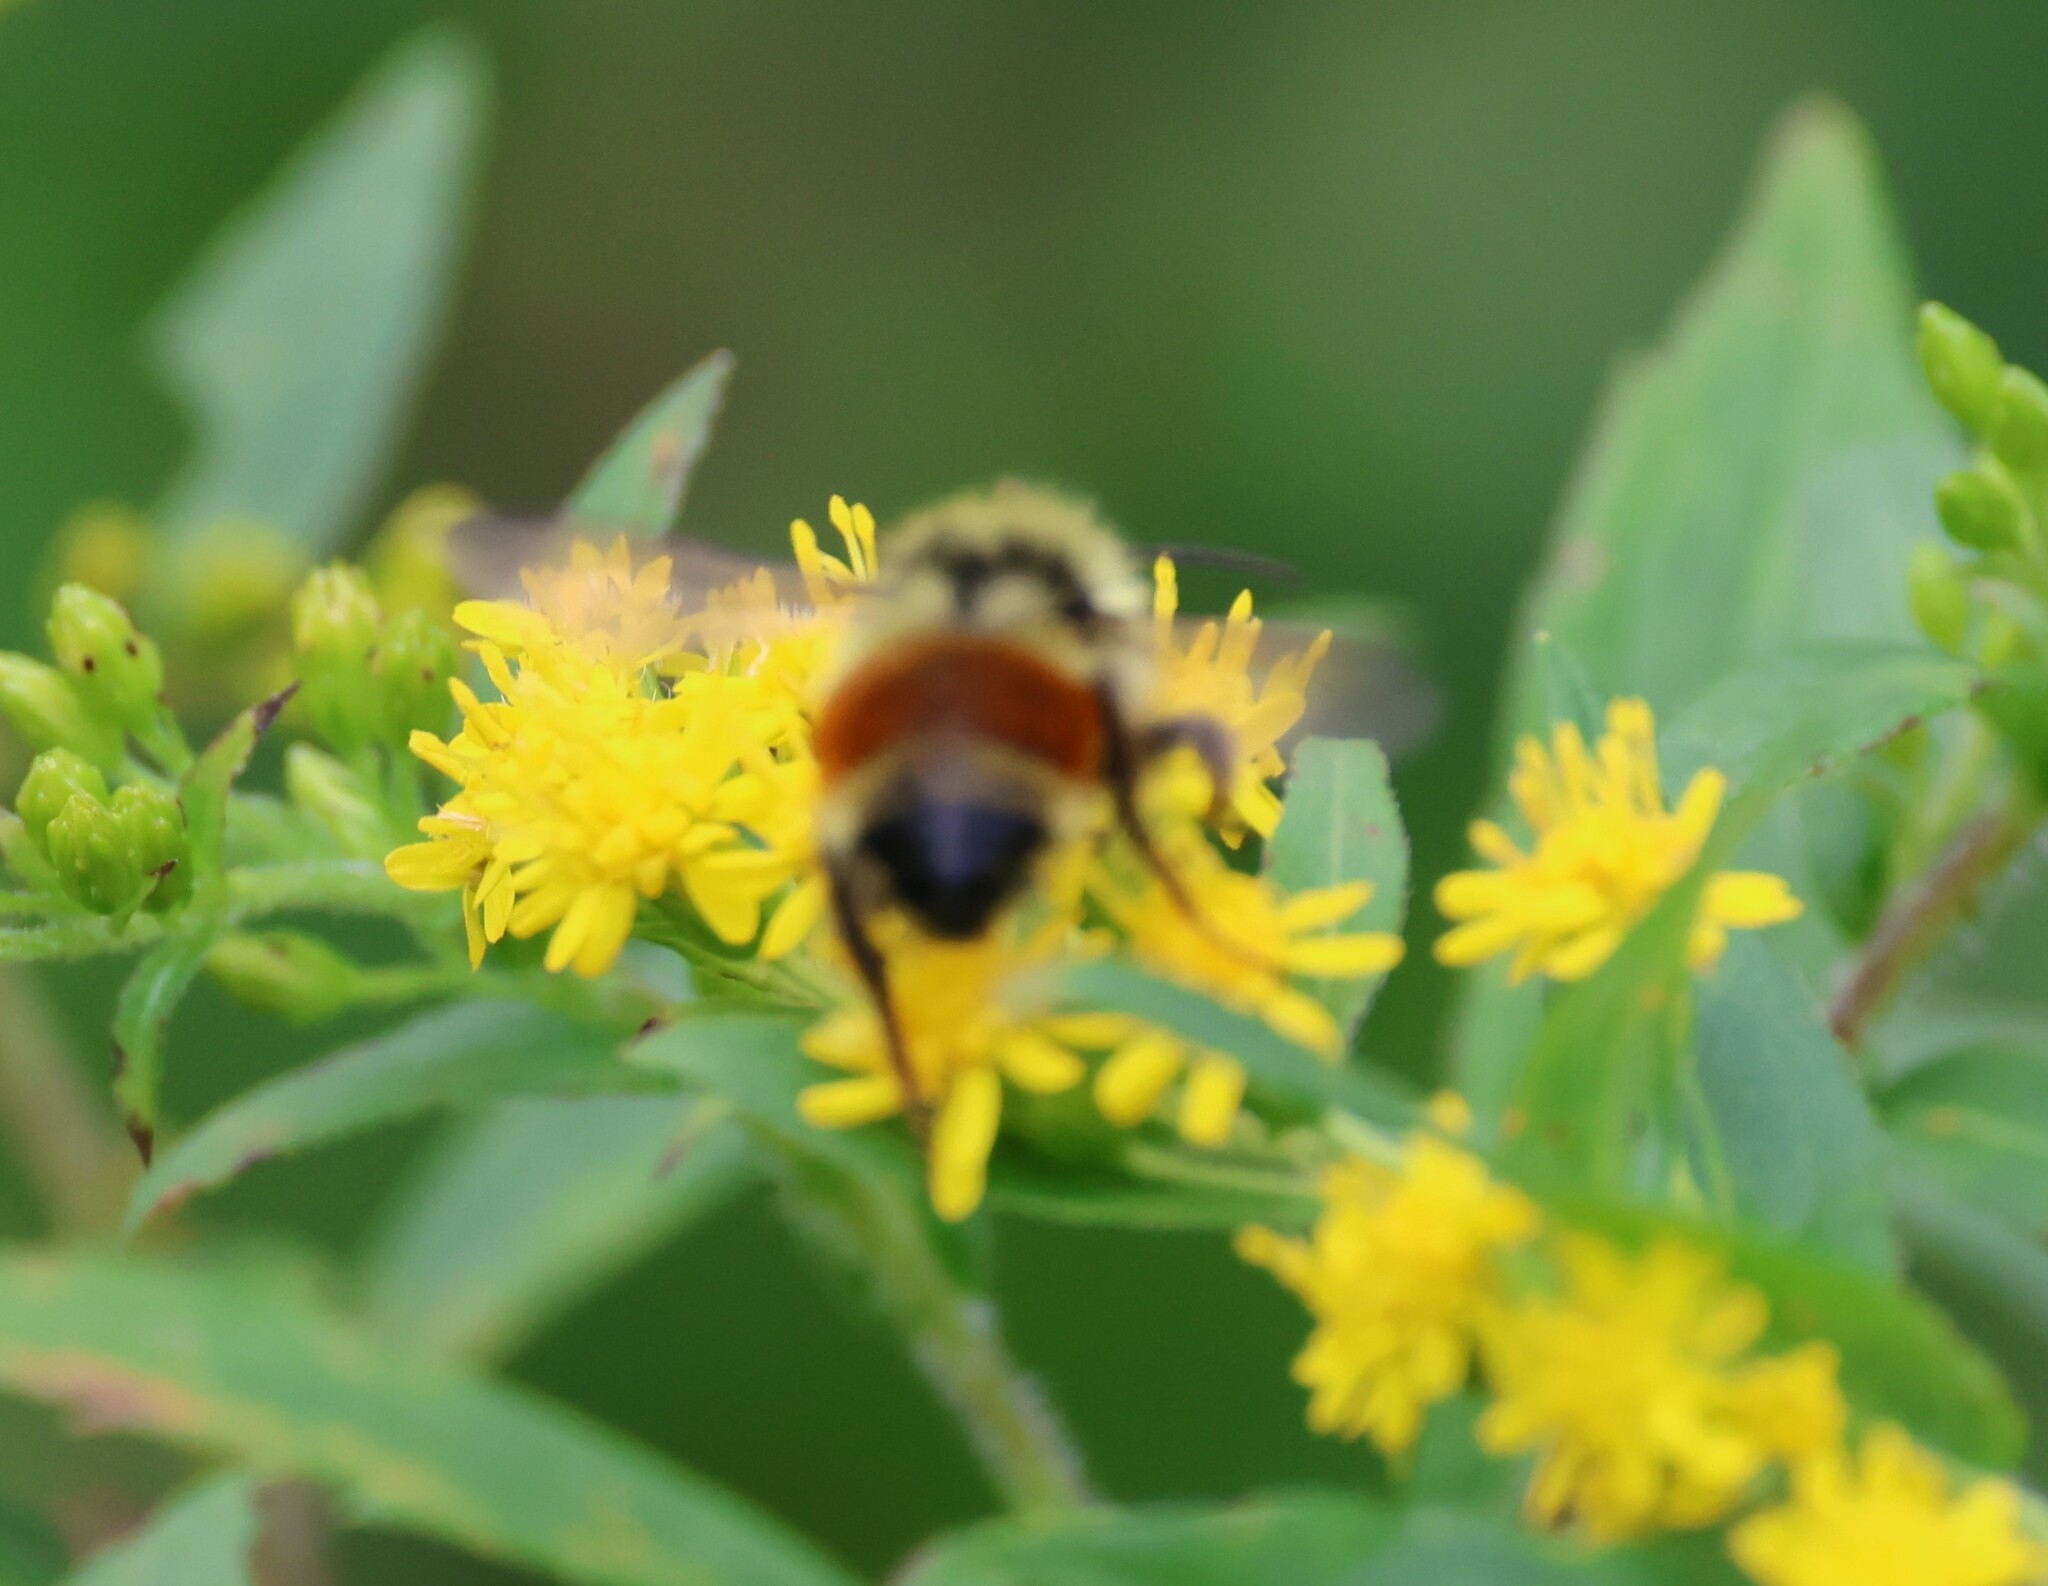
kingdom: Animalia
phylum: Arthropoda
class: Insecta
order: Hymenoptera
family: Apidae
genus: Bombus
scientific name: Bombus ternarius
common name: Tri-colored bumble bee
